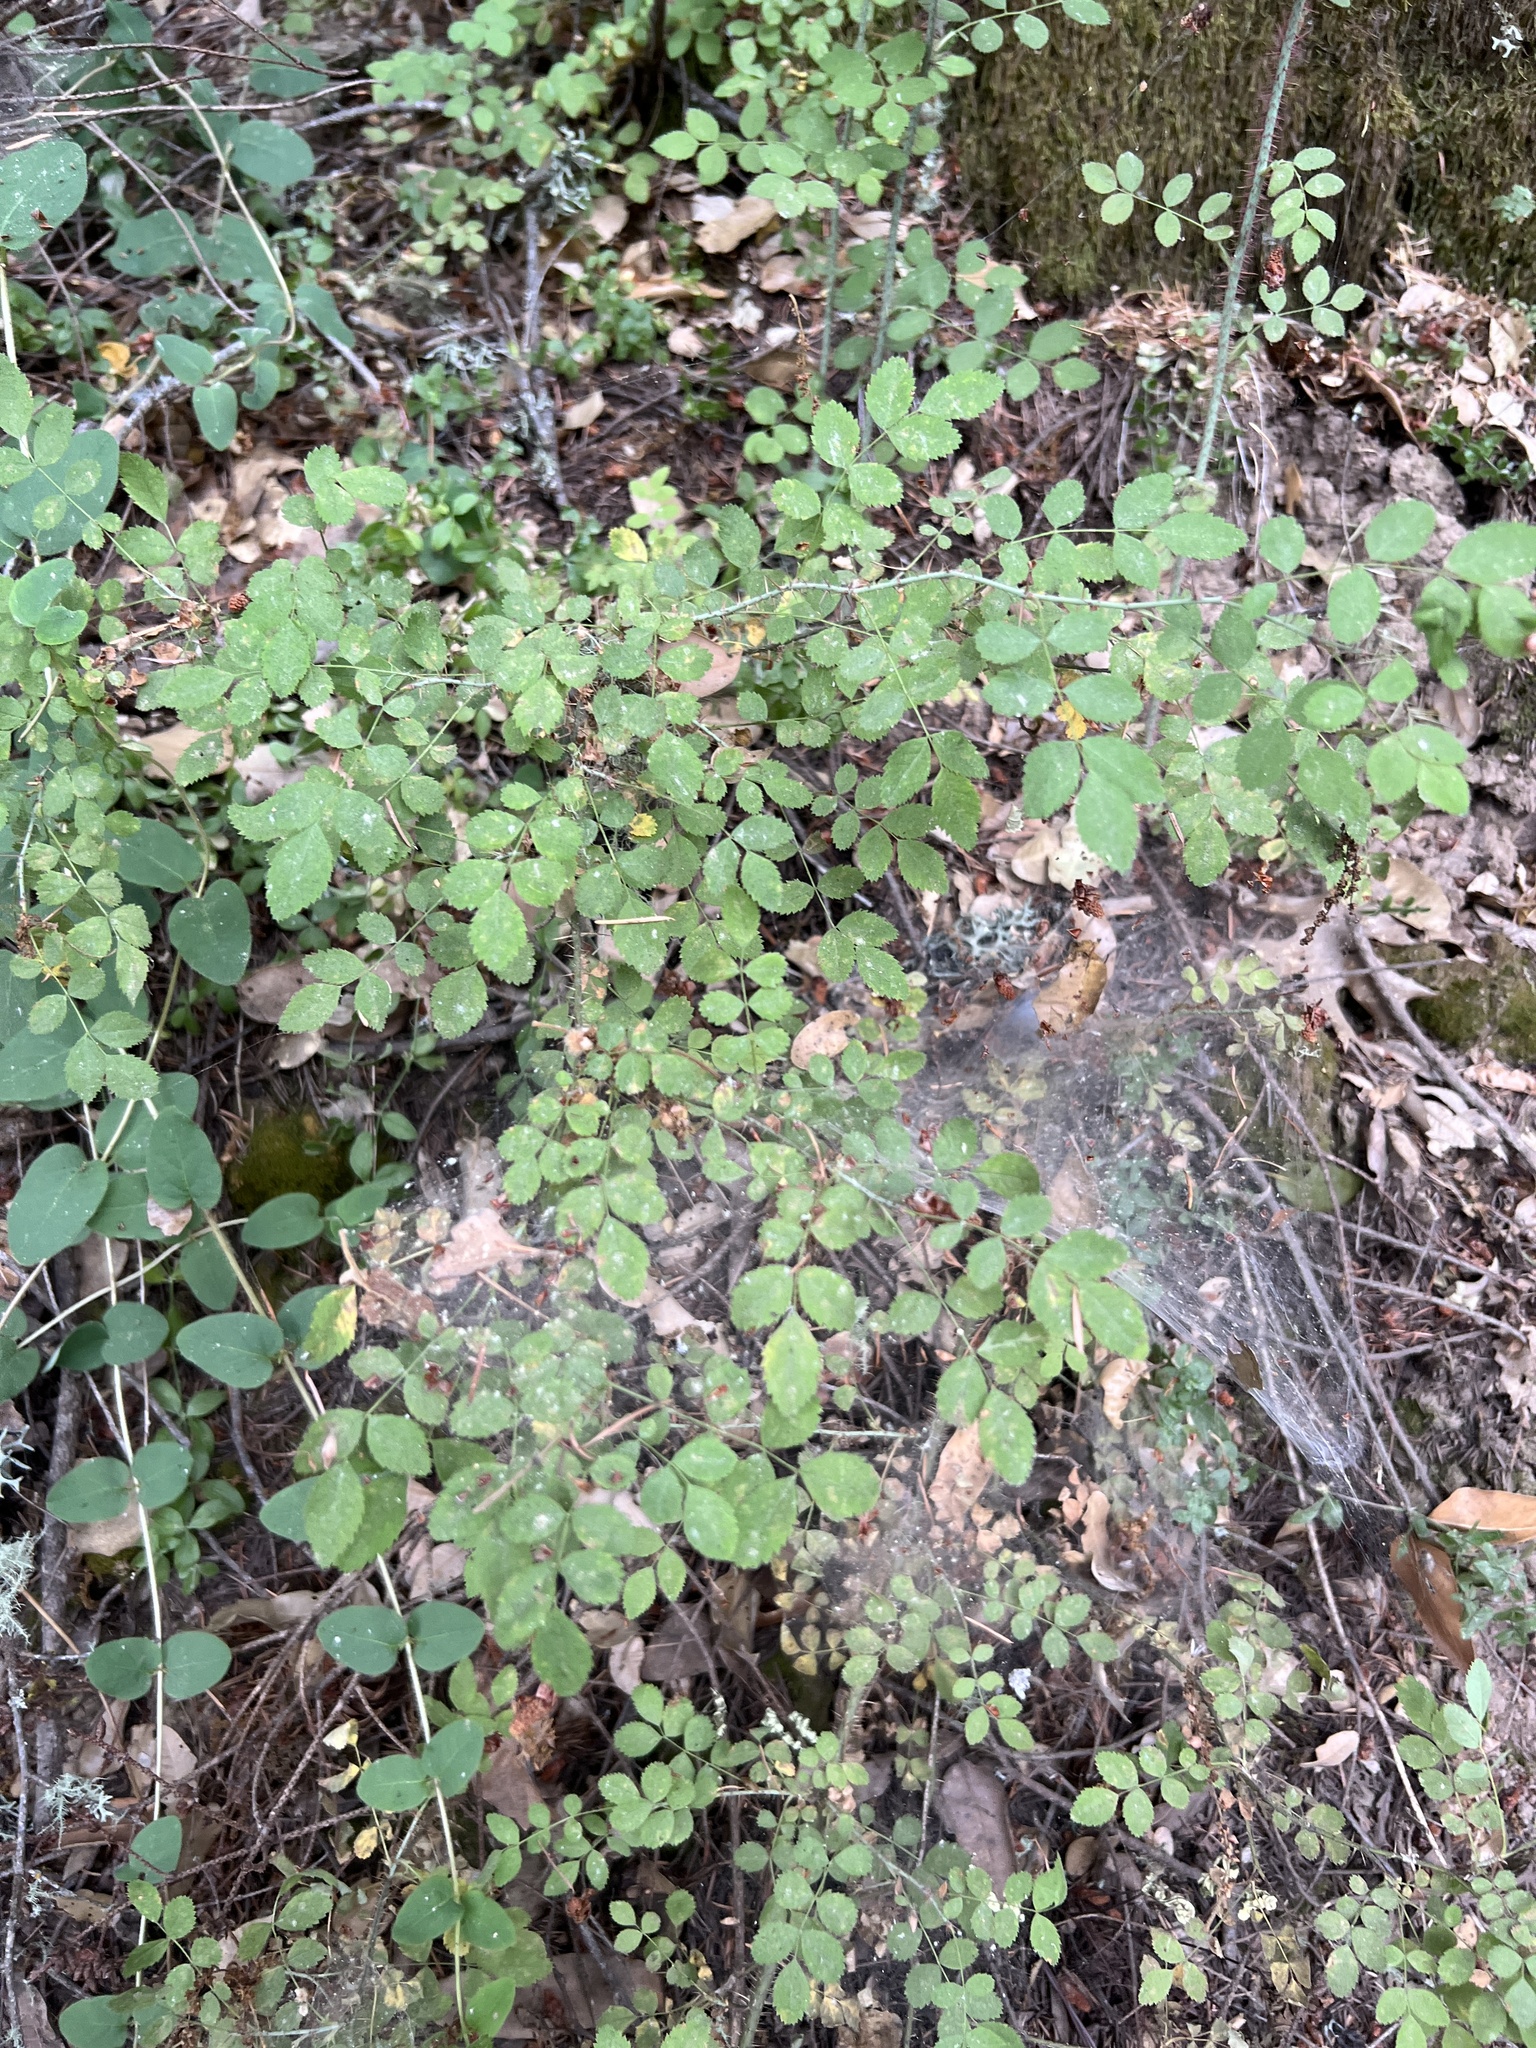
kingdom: Plantae
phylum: Tracheophyta
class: Magnoliopsida
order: Rosales
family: Rosaceae
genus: Rosa
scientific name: Rosa gymnocarpa
